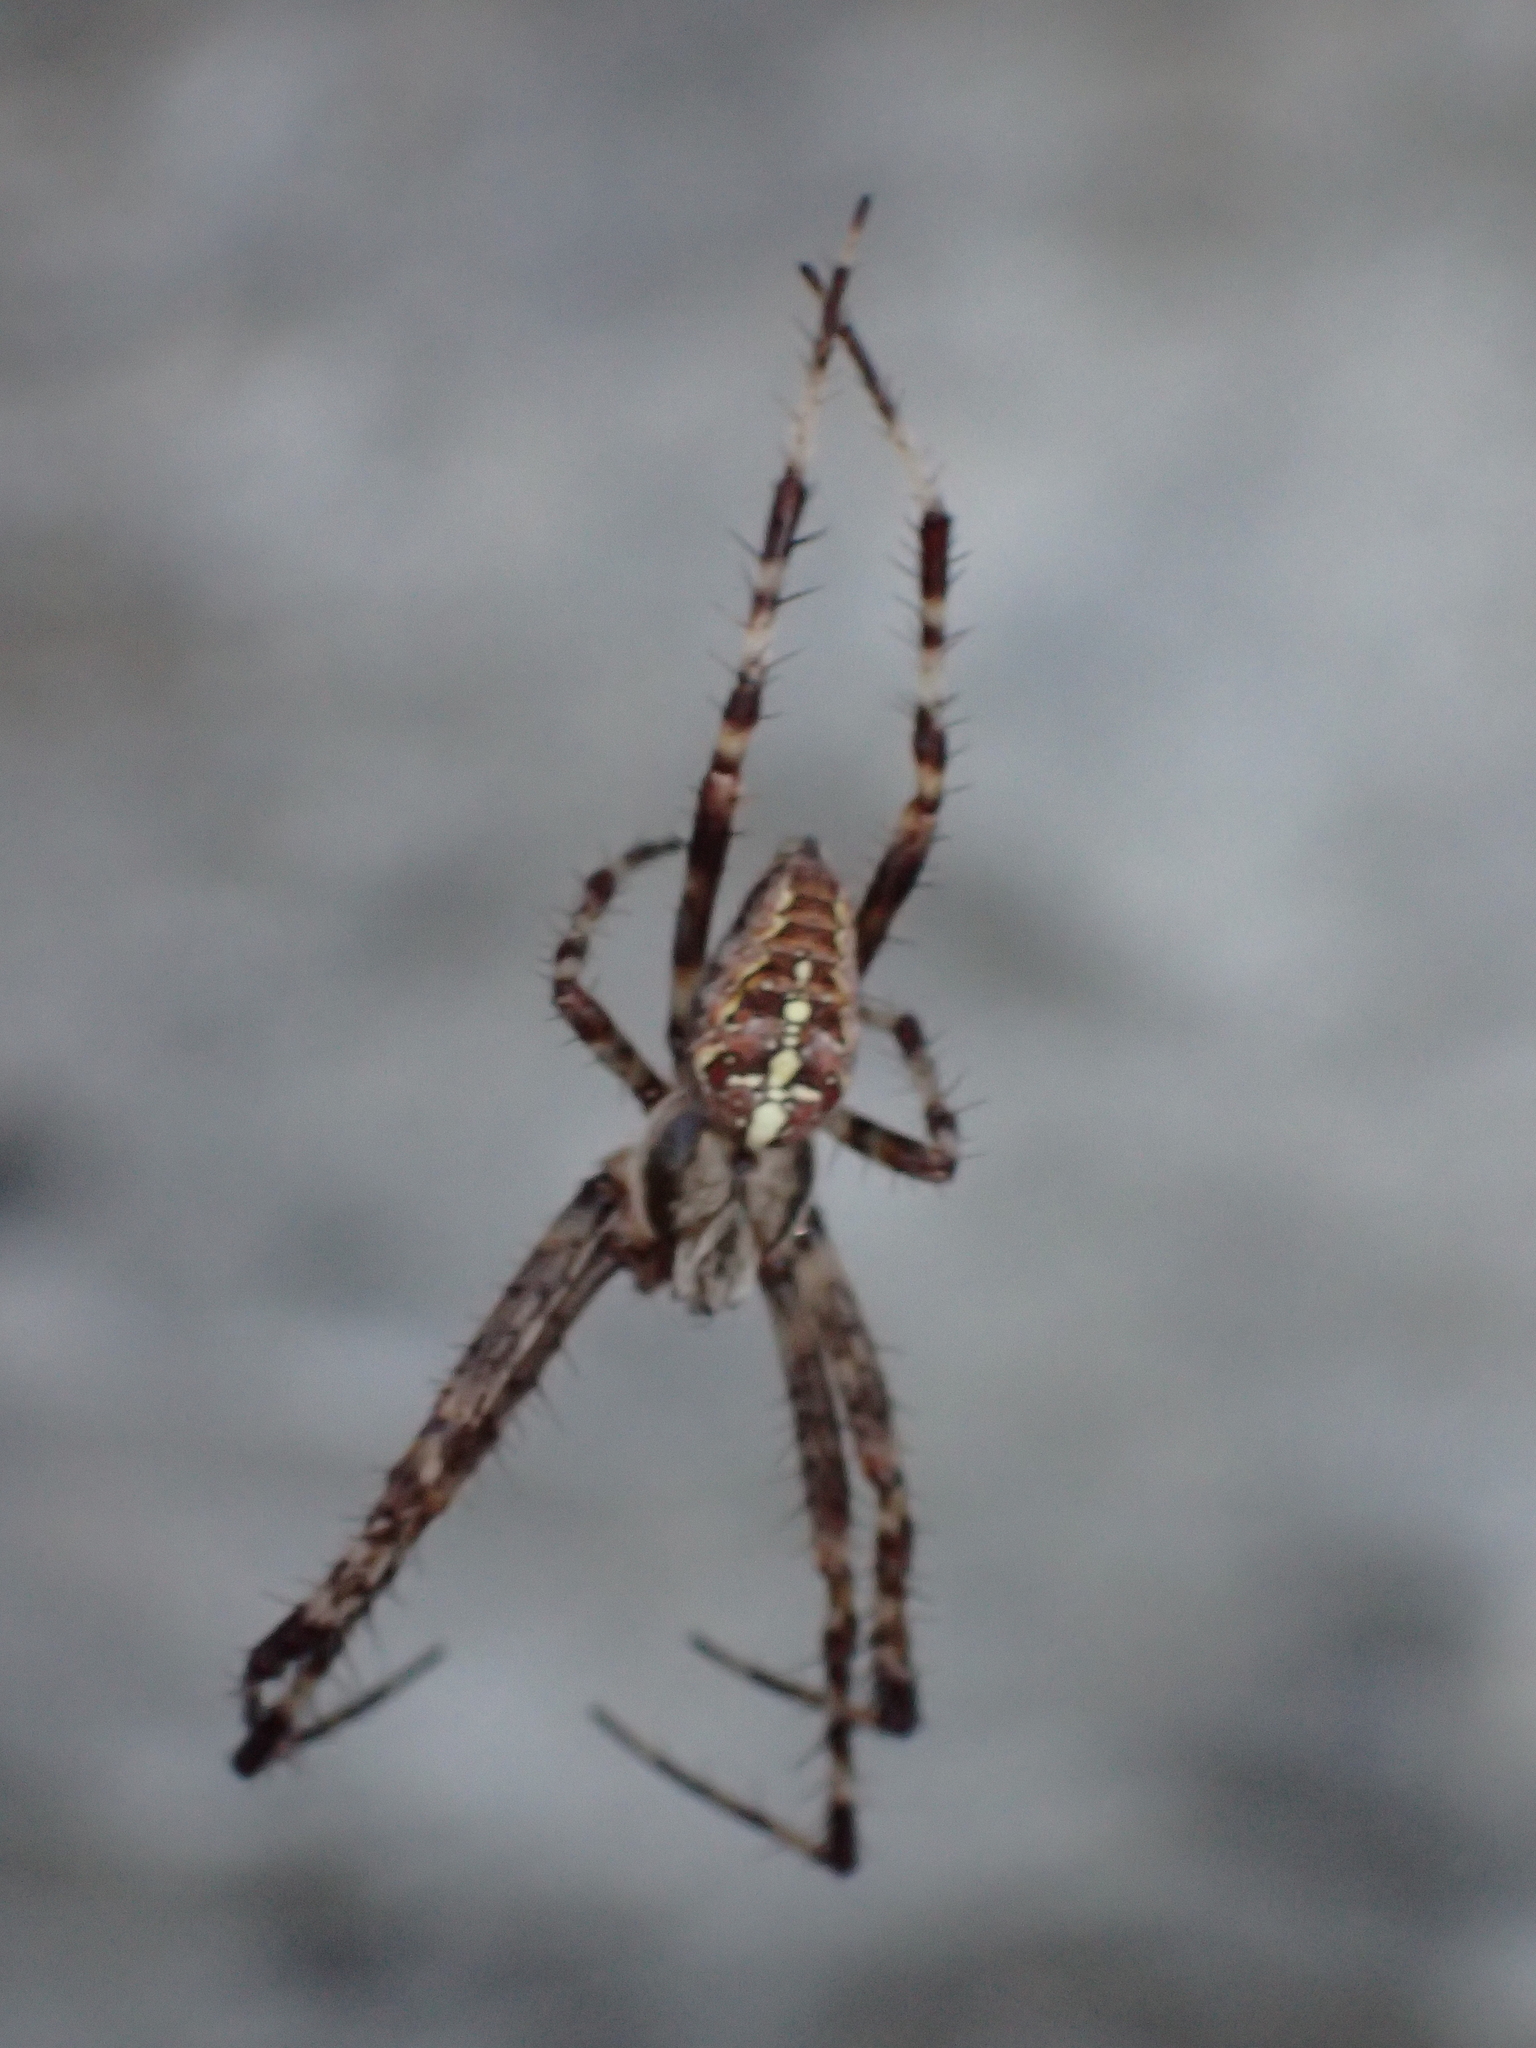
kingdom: Animalia
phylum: Arthropoda
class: Arachnida
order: Araneae
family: Araneidae
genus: Araneus
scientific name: Araneus diadematus
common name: Cross orbweaver
